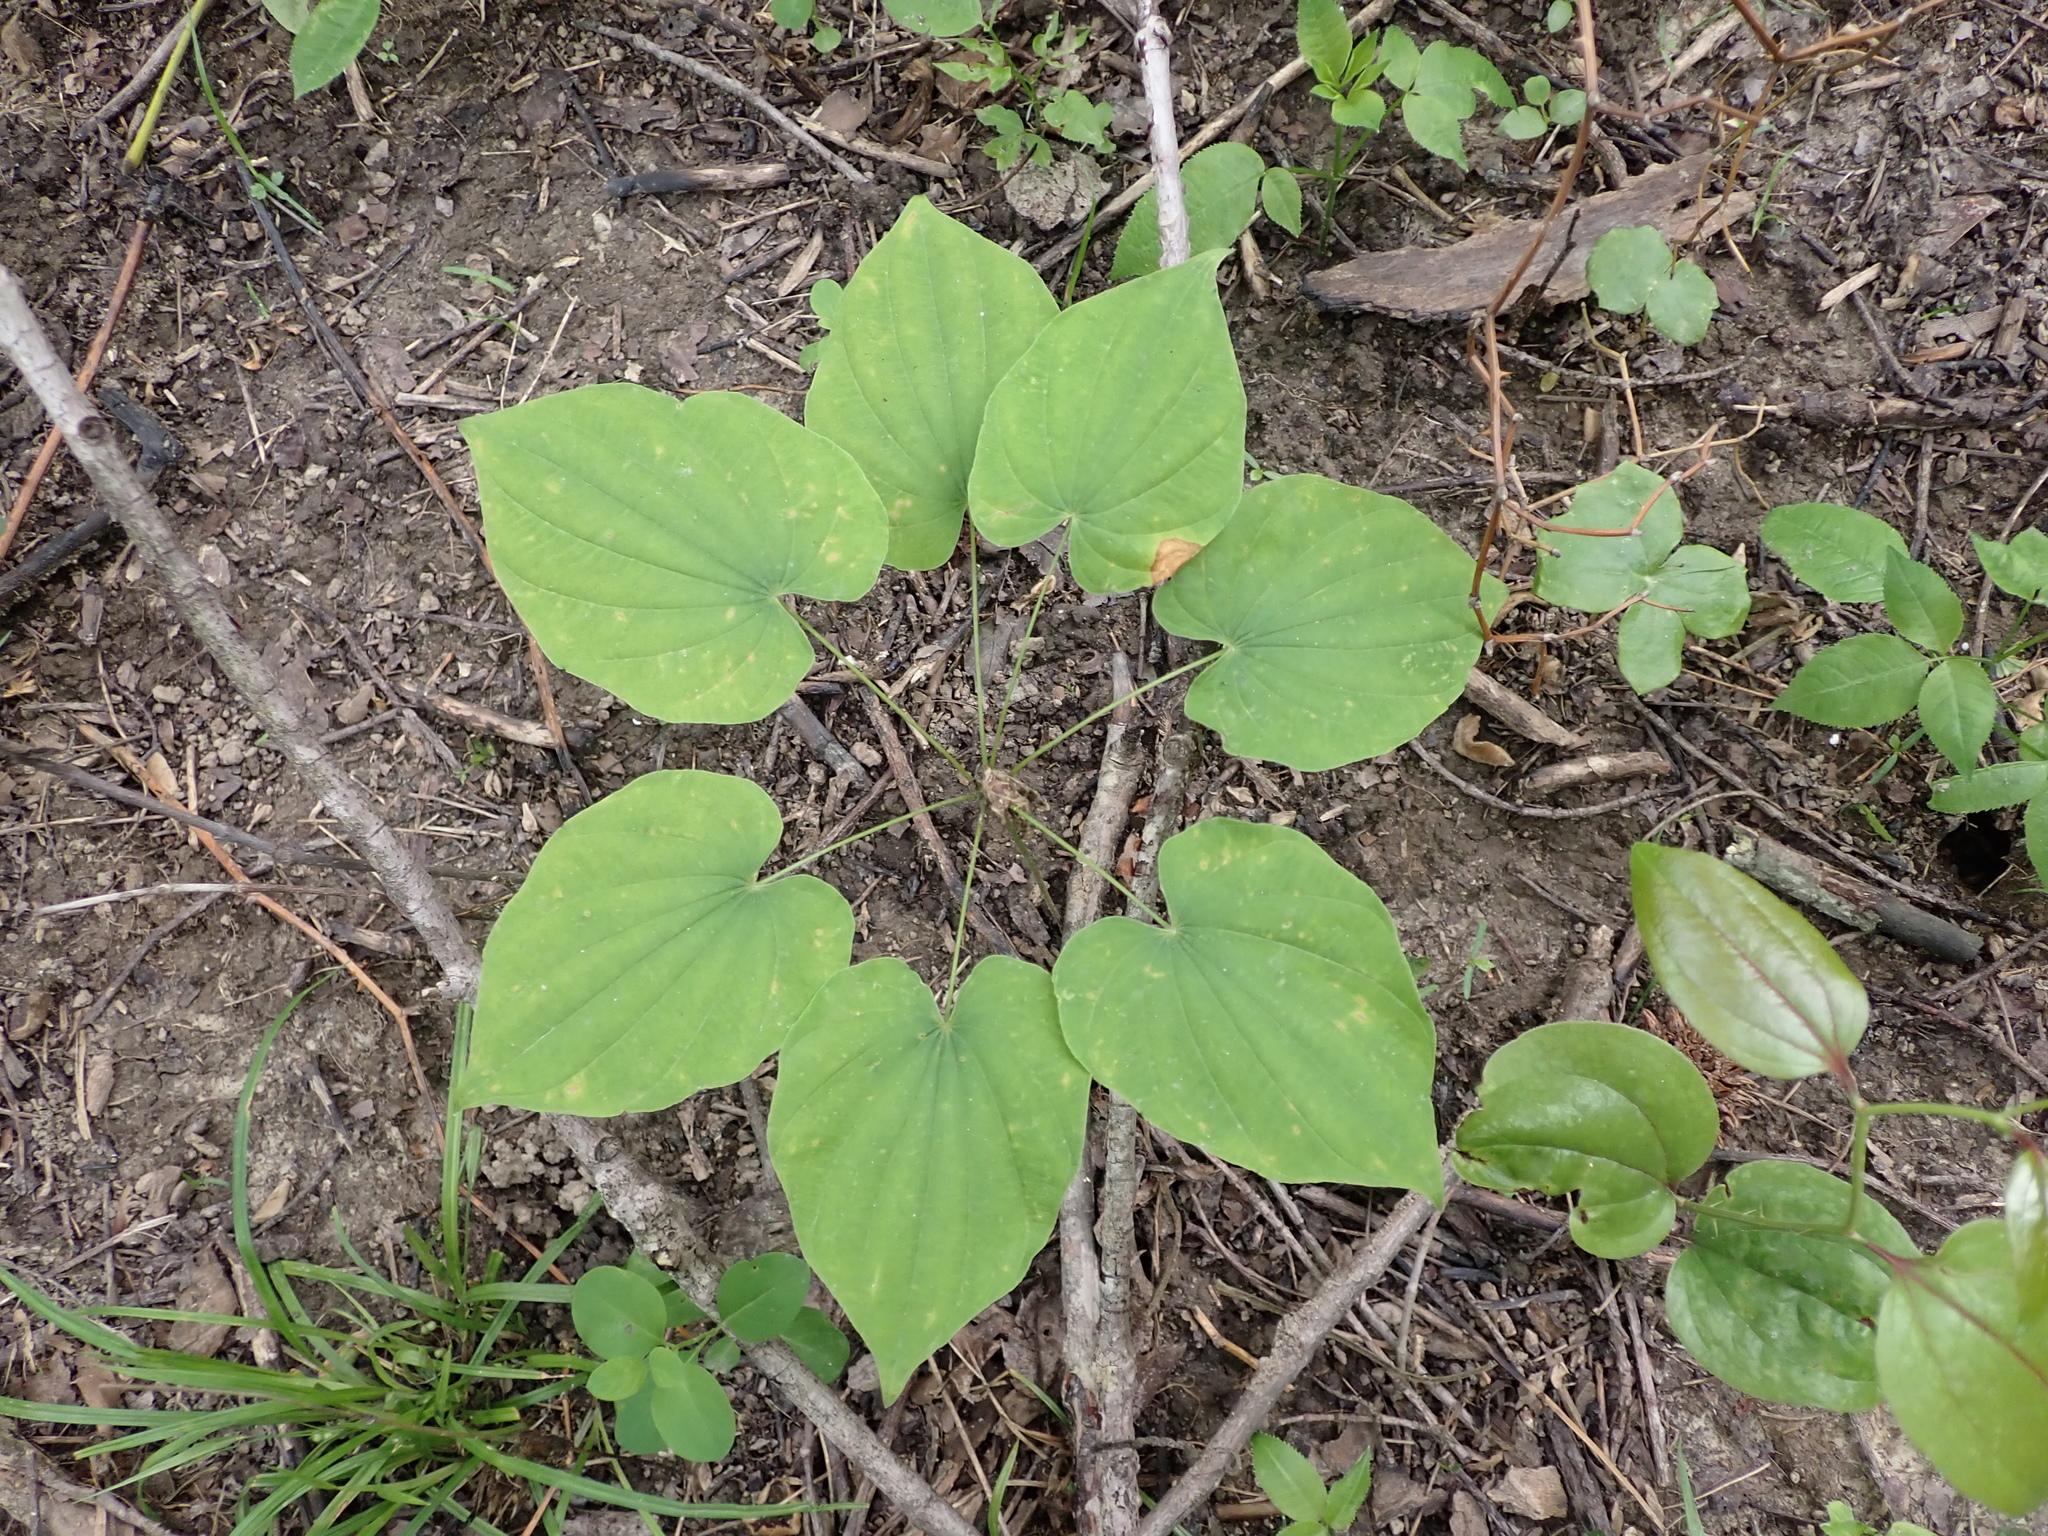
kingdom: Plantae
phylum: Tracheophyta
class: Liliopsida
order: Dioscoreales
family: Dioscoreaceae
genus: Dioscorea
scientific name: Dioscorea villosa
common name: Wild yam
